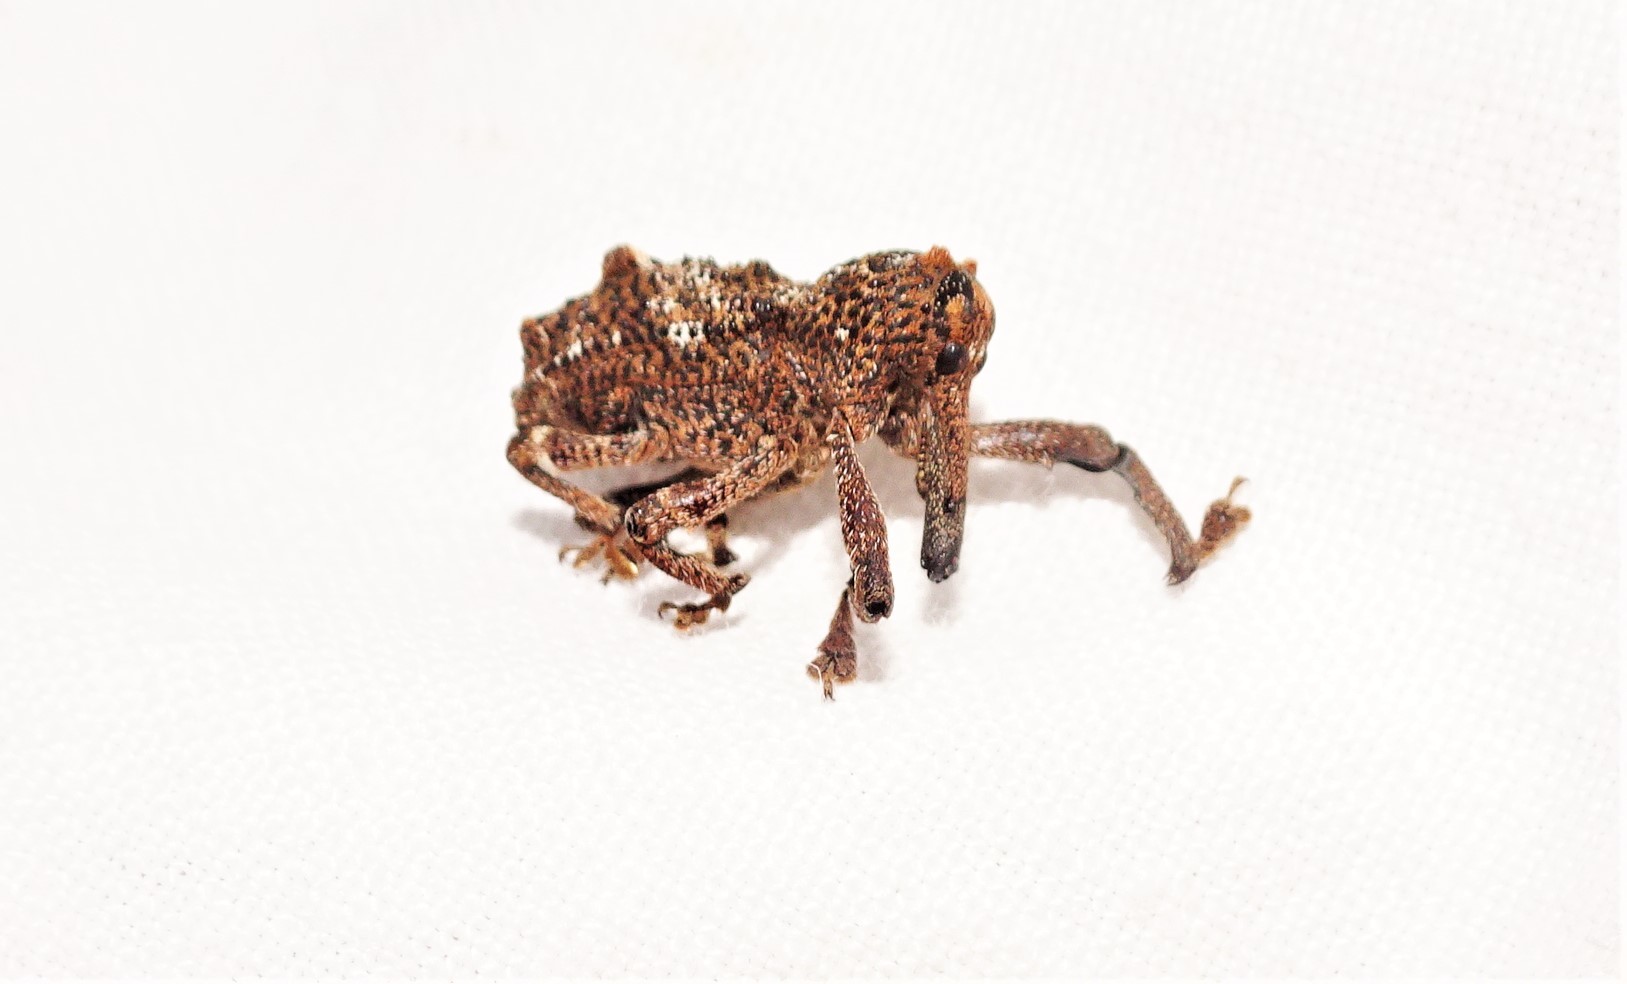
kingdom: Animalia
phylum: Arthropoda
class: Insecta
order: Coleoptera
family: Curculionidae
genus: Orthorhinus
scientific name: Orthorhinus cylindrirostris
